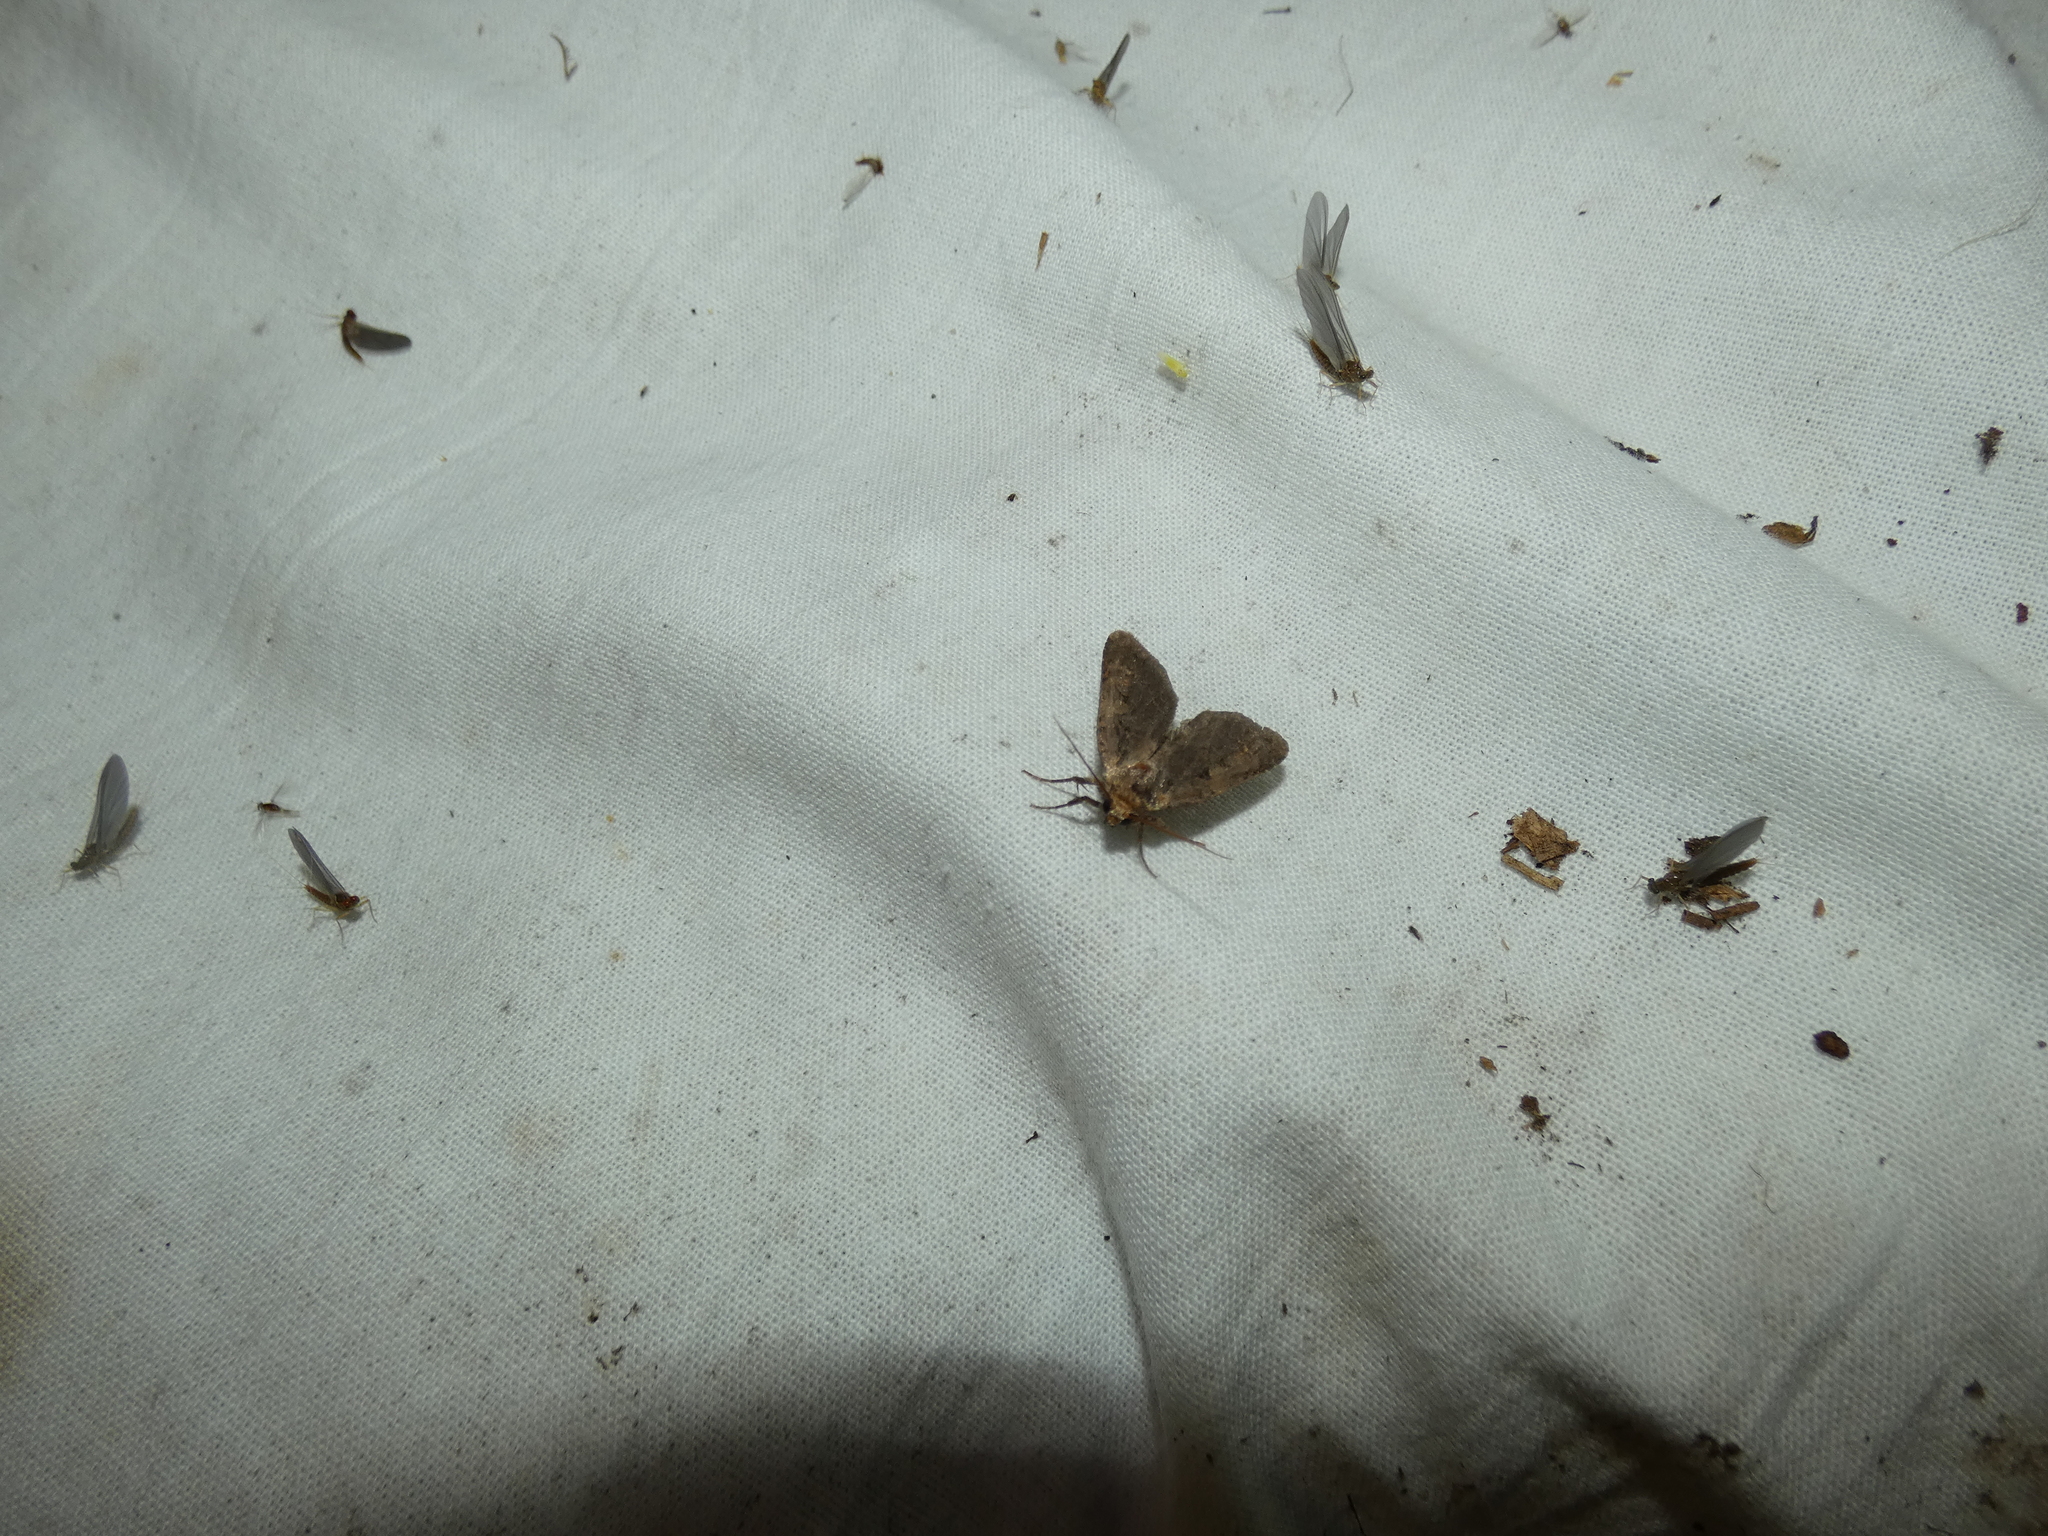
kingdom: Animalia
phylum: Arthropoda
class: Insecta
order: Lepidoptera
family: Noctuidae
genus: Xestia
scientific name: Xestia ditrapezium
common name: Triple-spotted clay
